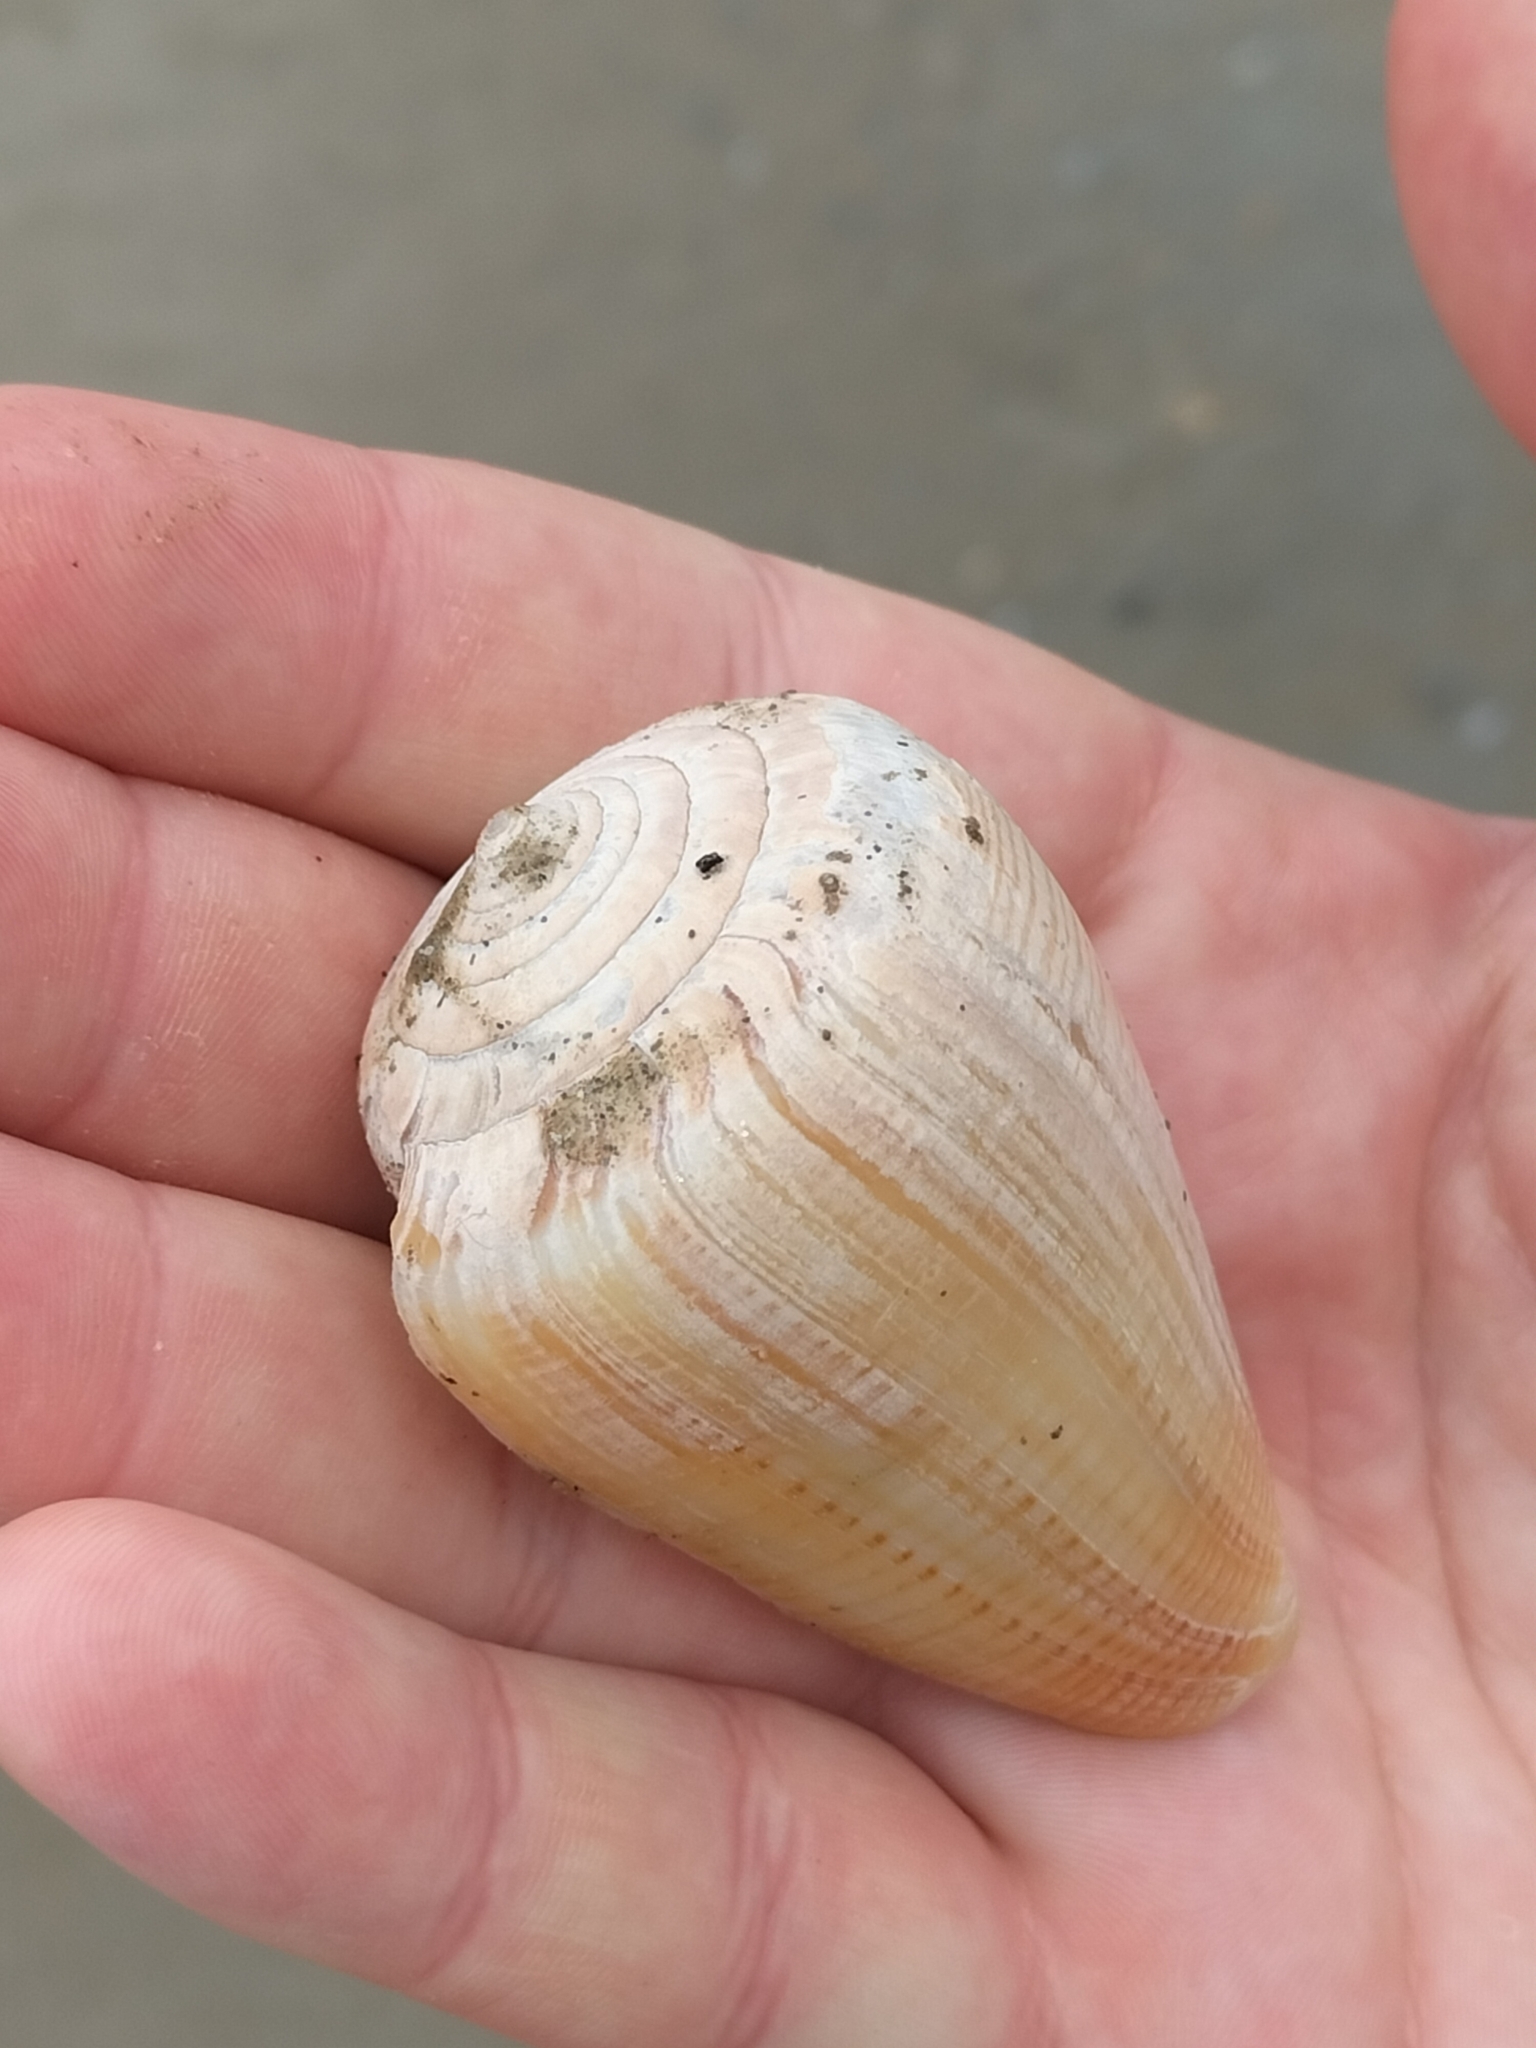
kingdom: Animalia
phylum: Mollusca
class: Gastropoda
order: Neogastropoda
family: Conidae
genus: Conus
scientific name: Conus figulinus
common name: Fig cone
